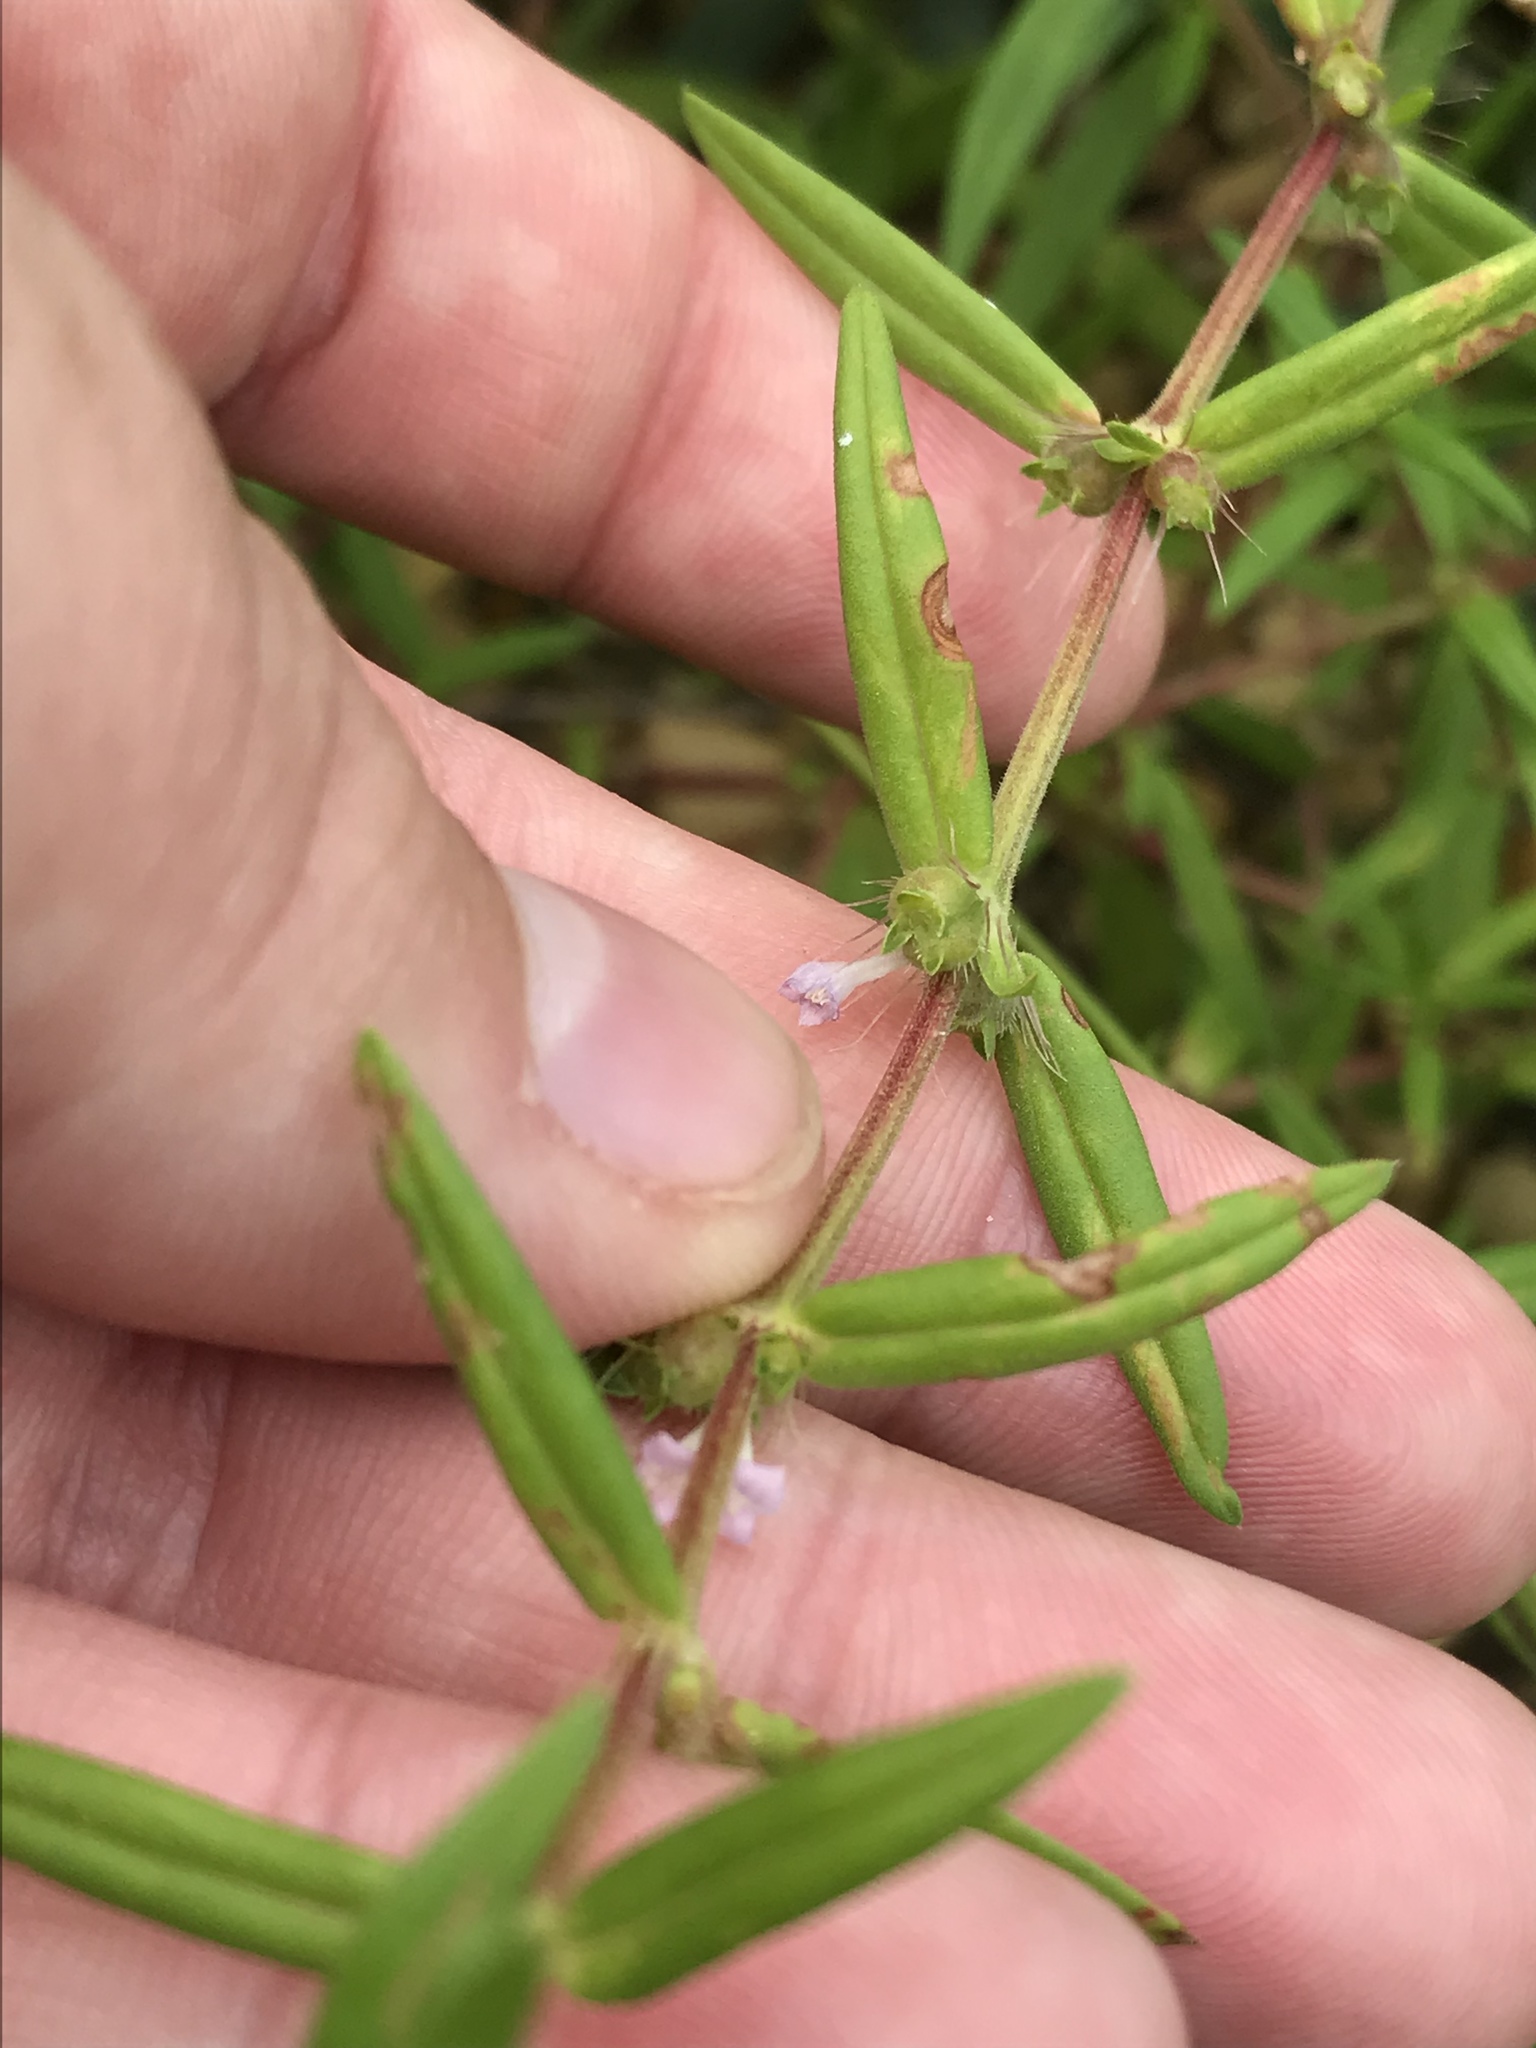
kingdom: Plantae
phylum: Tracheophyta
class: Magnoliopsida
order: Gentianales
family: Rubiaceae
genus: Hexasepalum
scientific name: Hexasepalum teres
